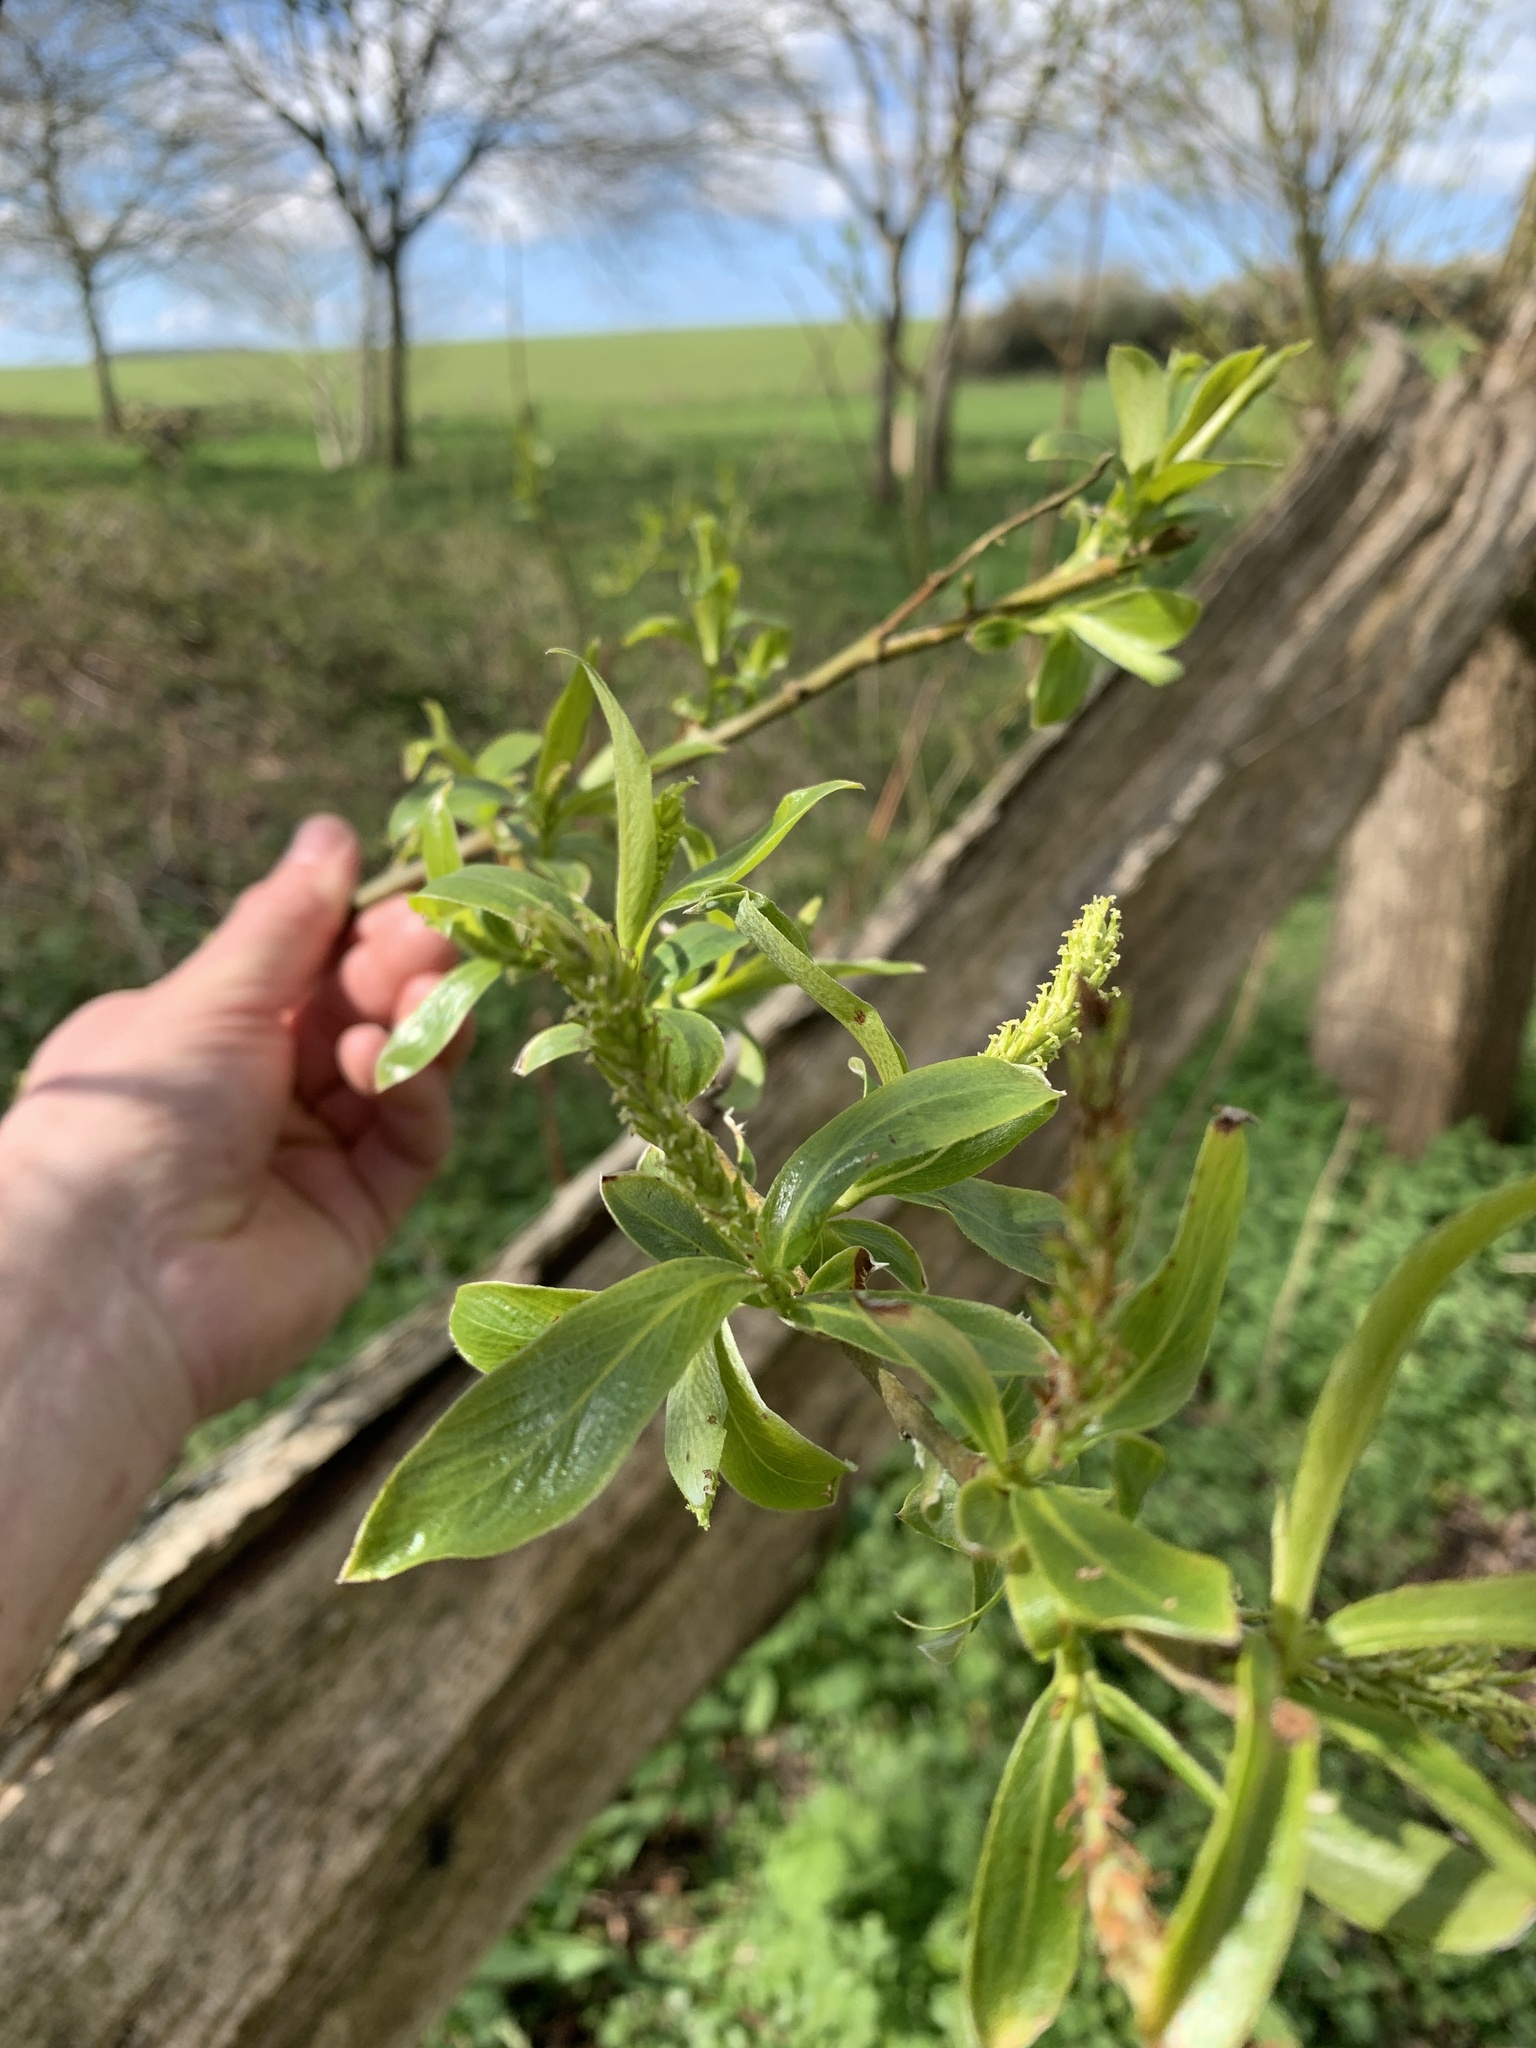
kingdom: Plantae
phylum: Tracheophyta
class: Magnoliopsida
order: Malpighiales
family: Salicaceae
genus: Salix
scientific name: Salix alba
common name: White willow
